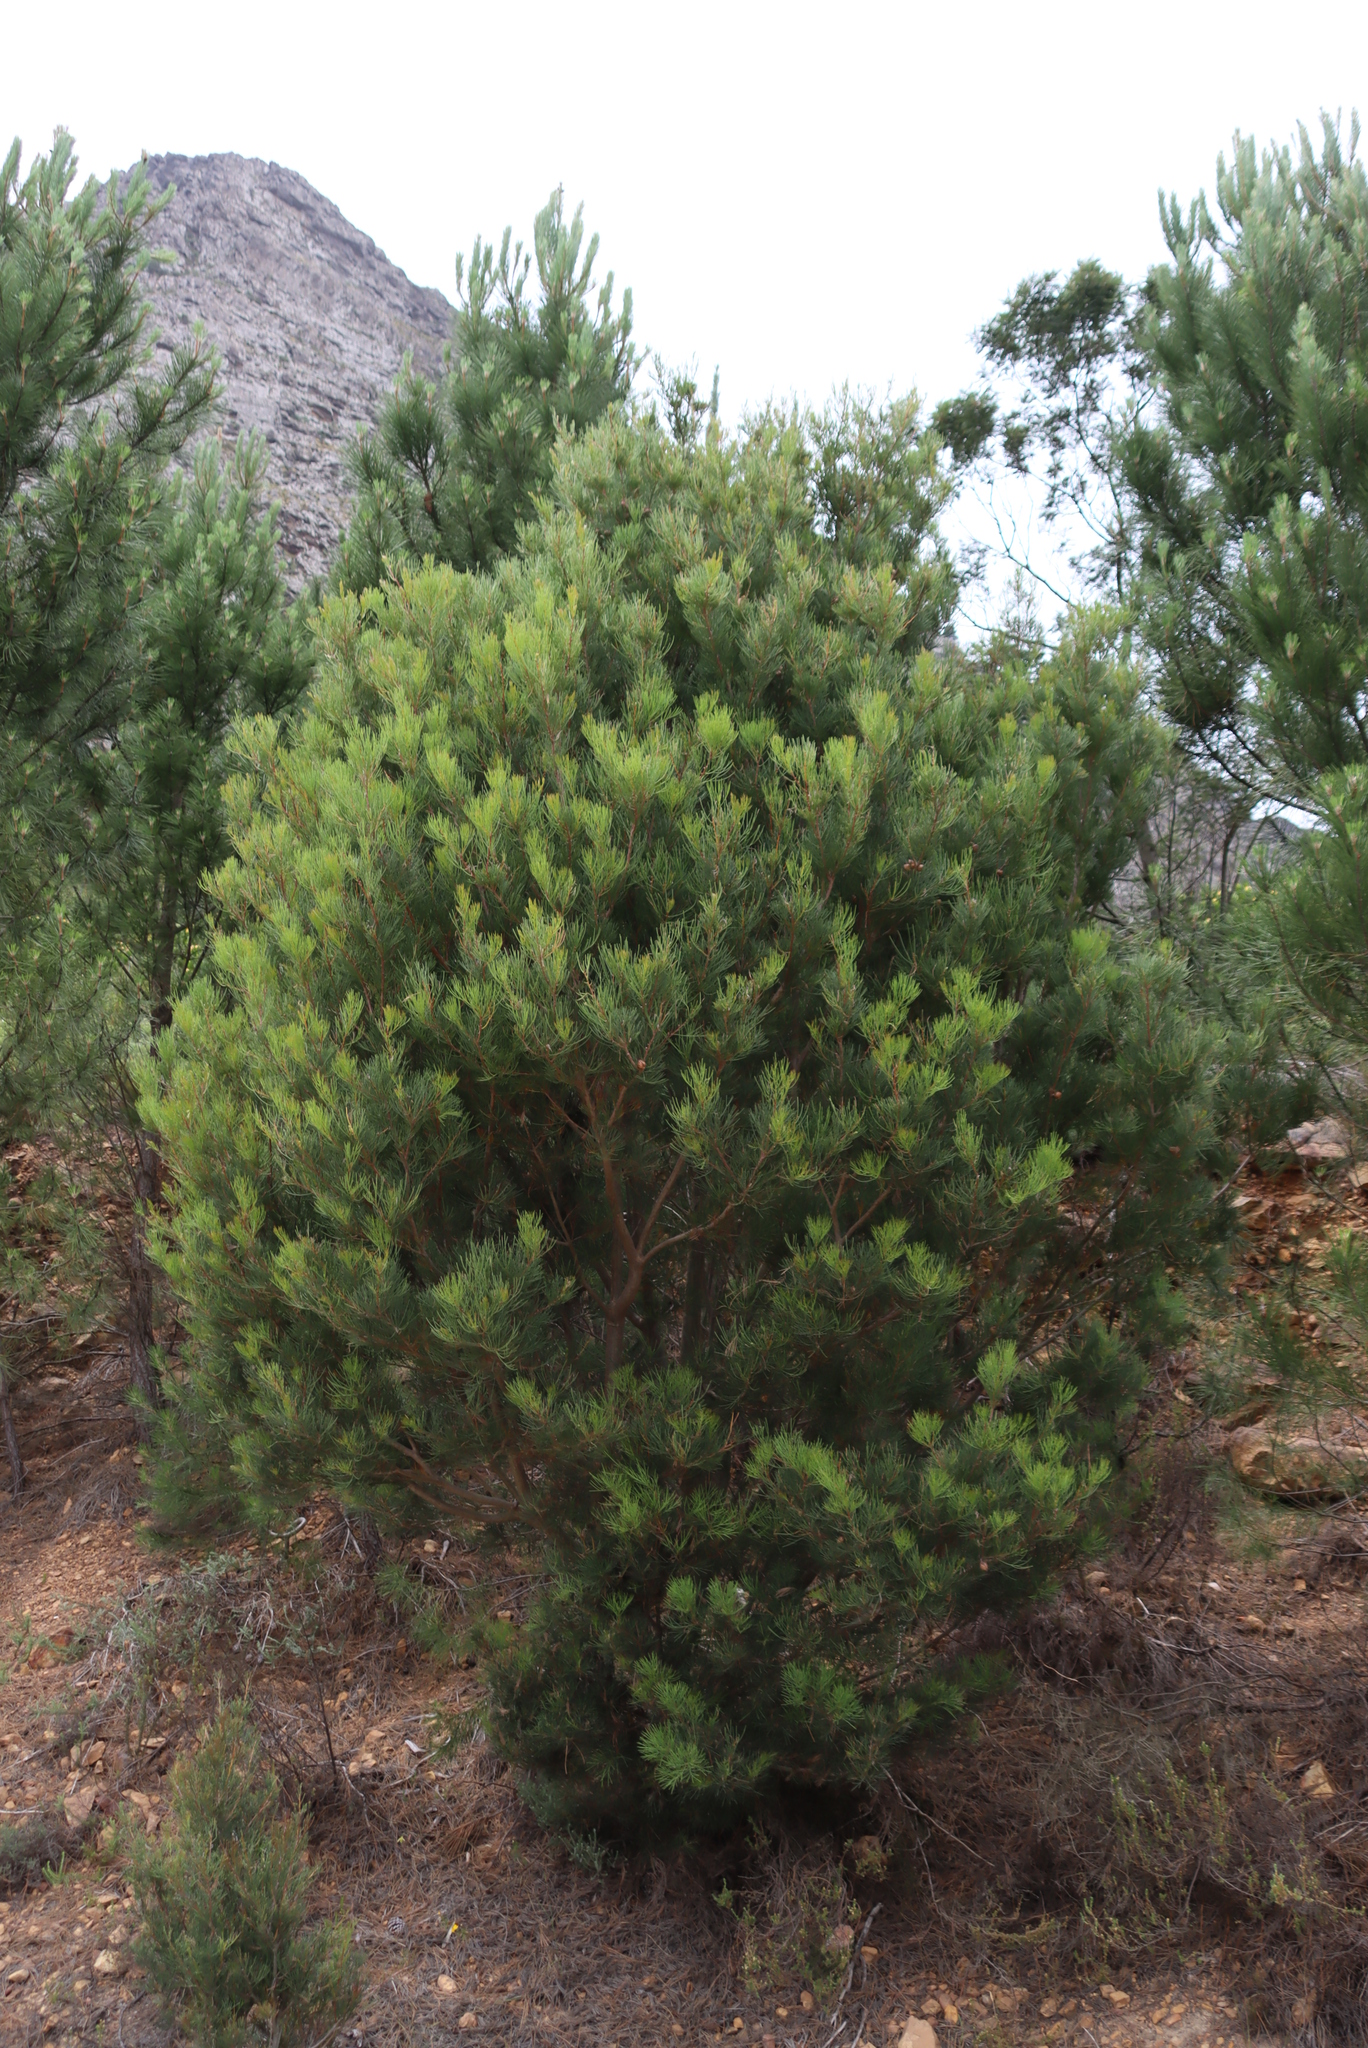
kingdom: Plantae
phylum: Tracheophyta
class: Magnoliopsida
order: Proteales
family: Proteaceae
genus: Hakea
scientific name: Hakea drupacea
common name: Sweet hakea
